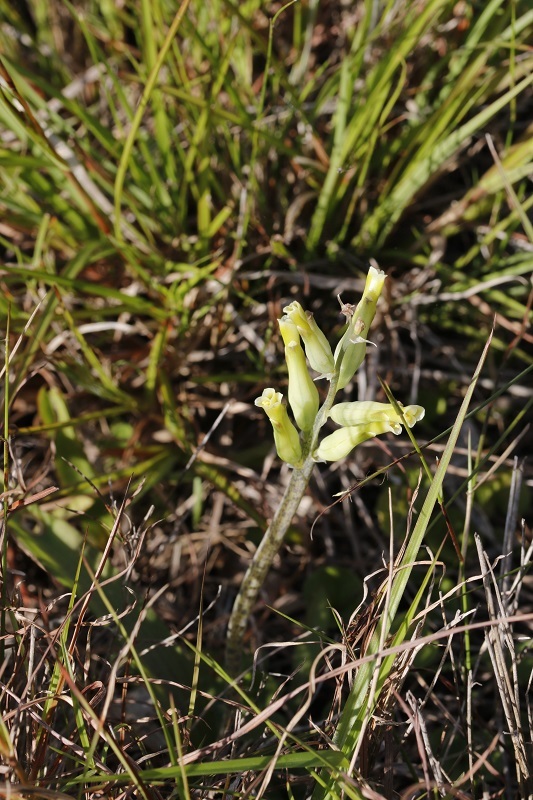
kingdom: Plantae
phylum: Tracheophyta
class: Liliopsida
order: Asparagales
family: Asparagaceae
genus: Lachenalia
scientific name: Lachenalia algoensis
